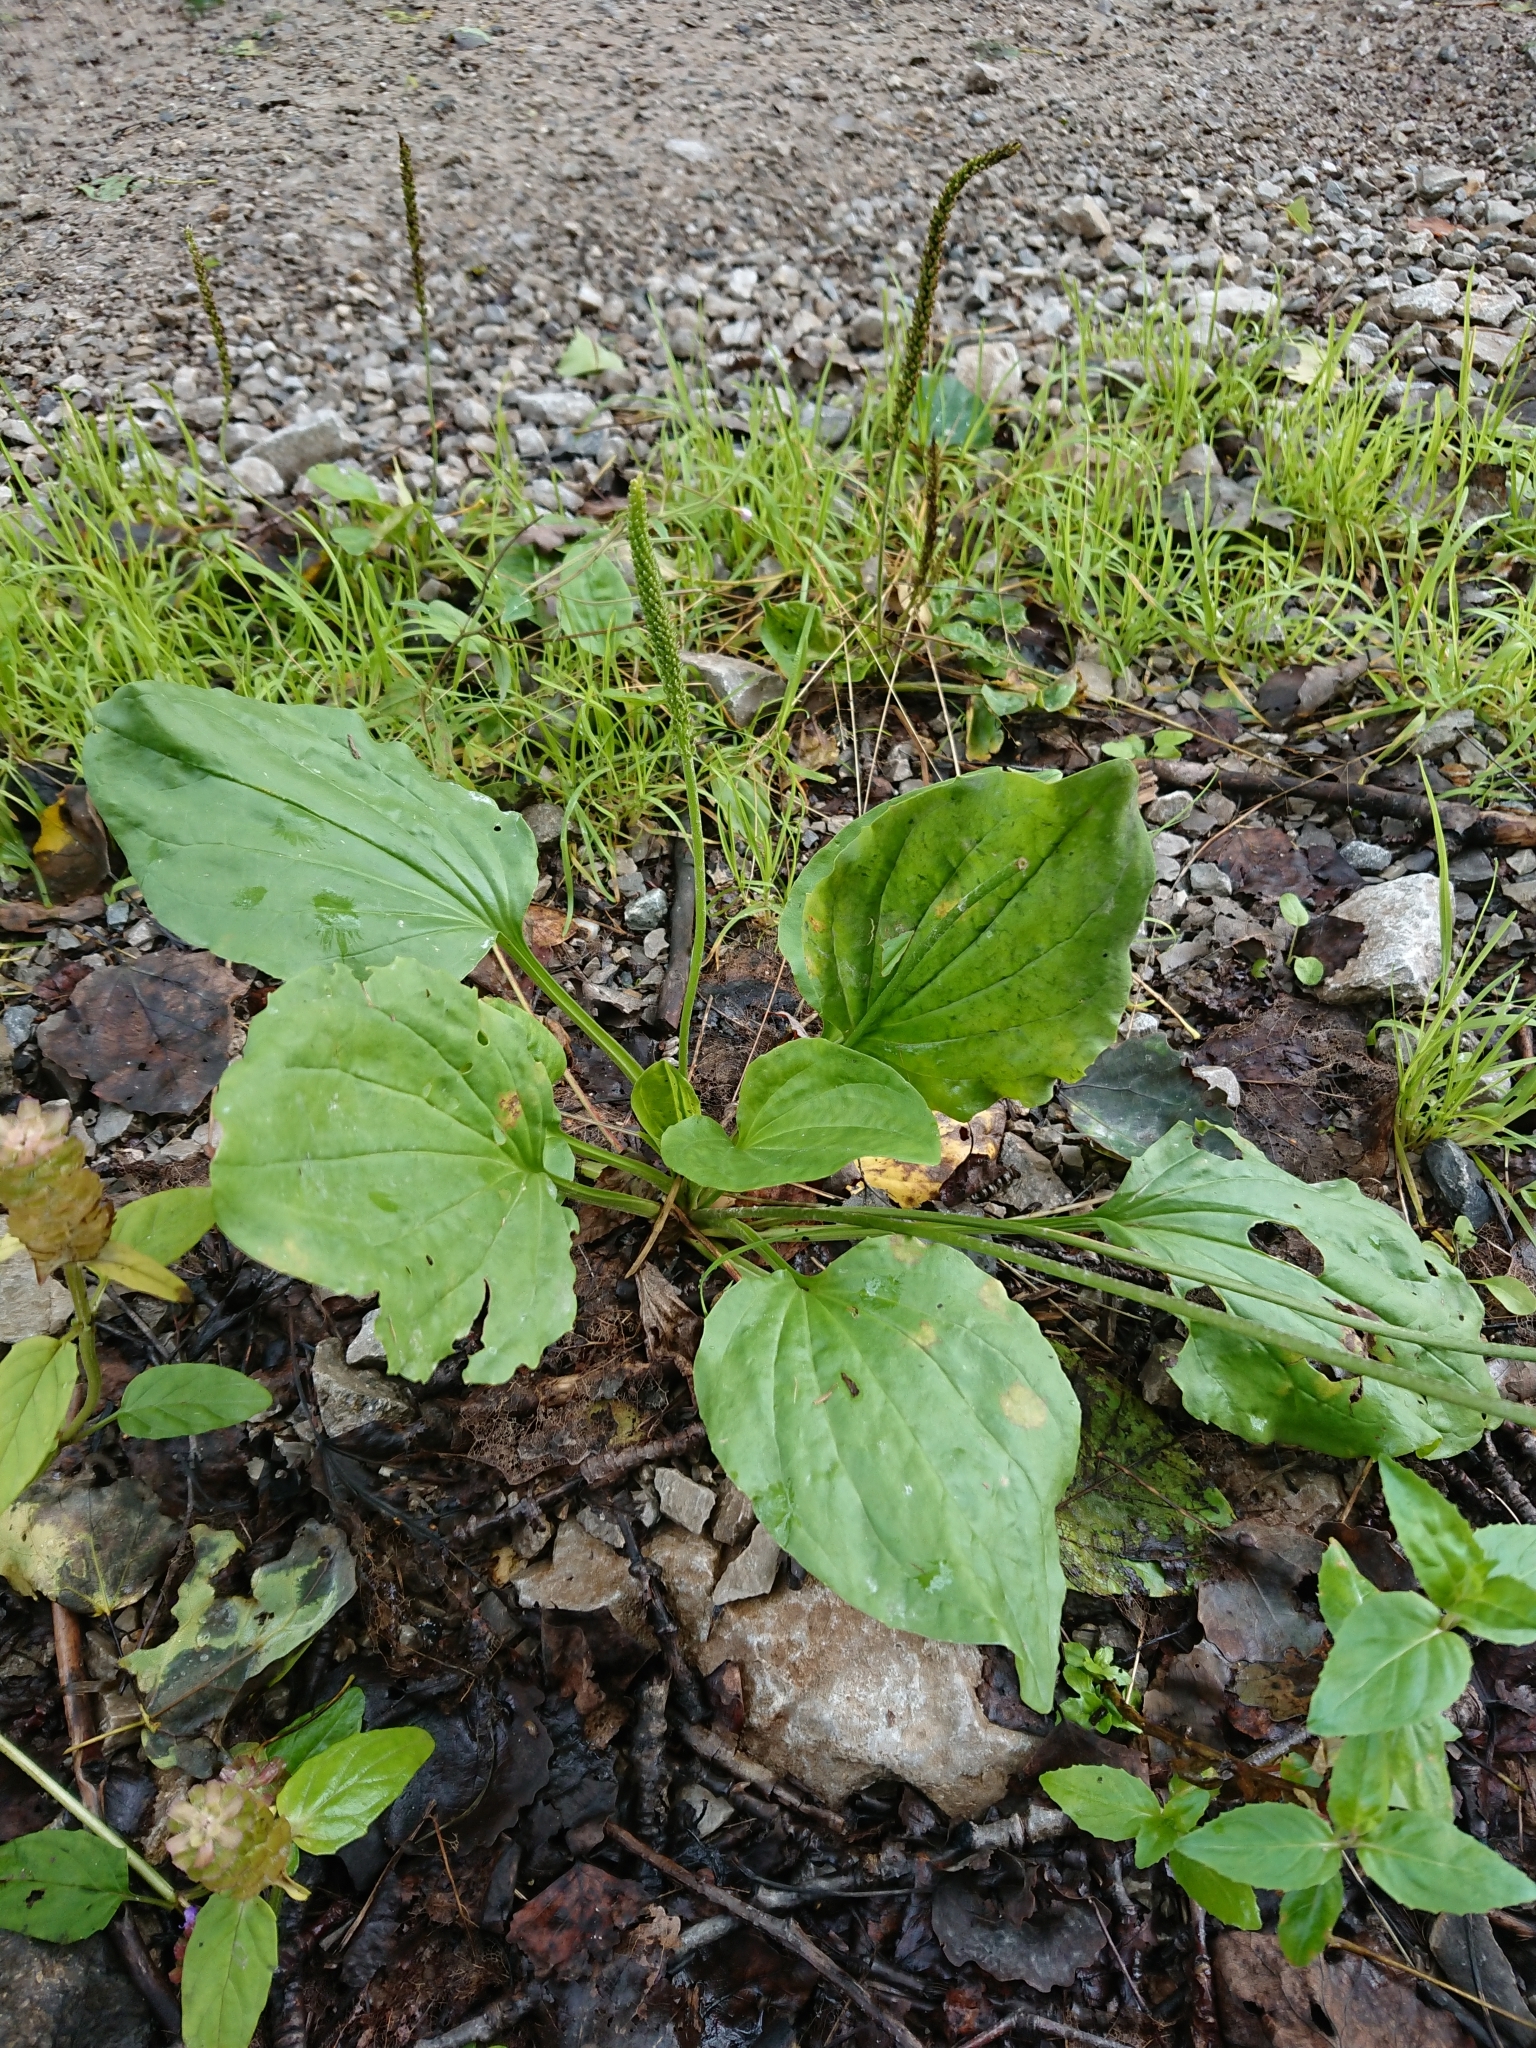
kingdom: Plantae
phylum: Tracheophyta
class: Magnoliopsida
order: Lamiales
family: Plantaginaceae
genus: Plantago
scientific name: Plantago major
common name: Common plantain
